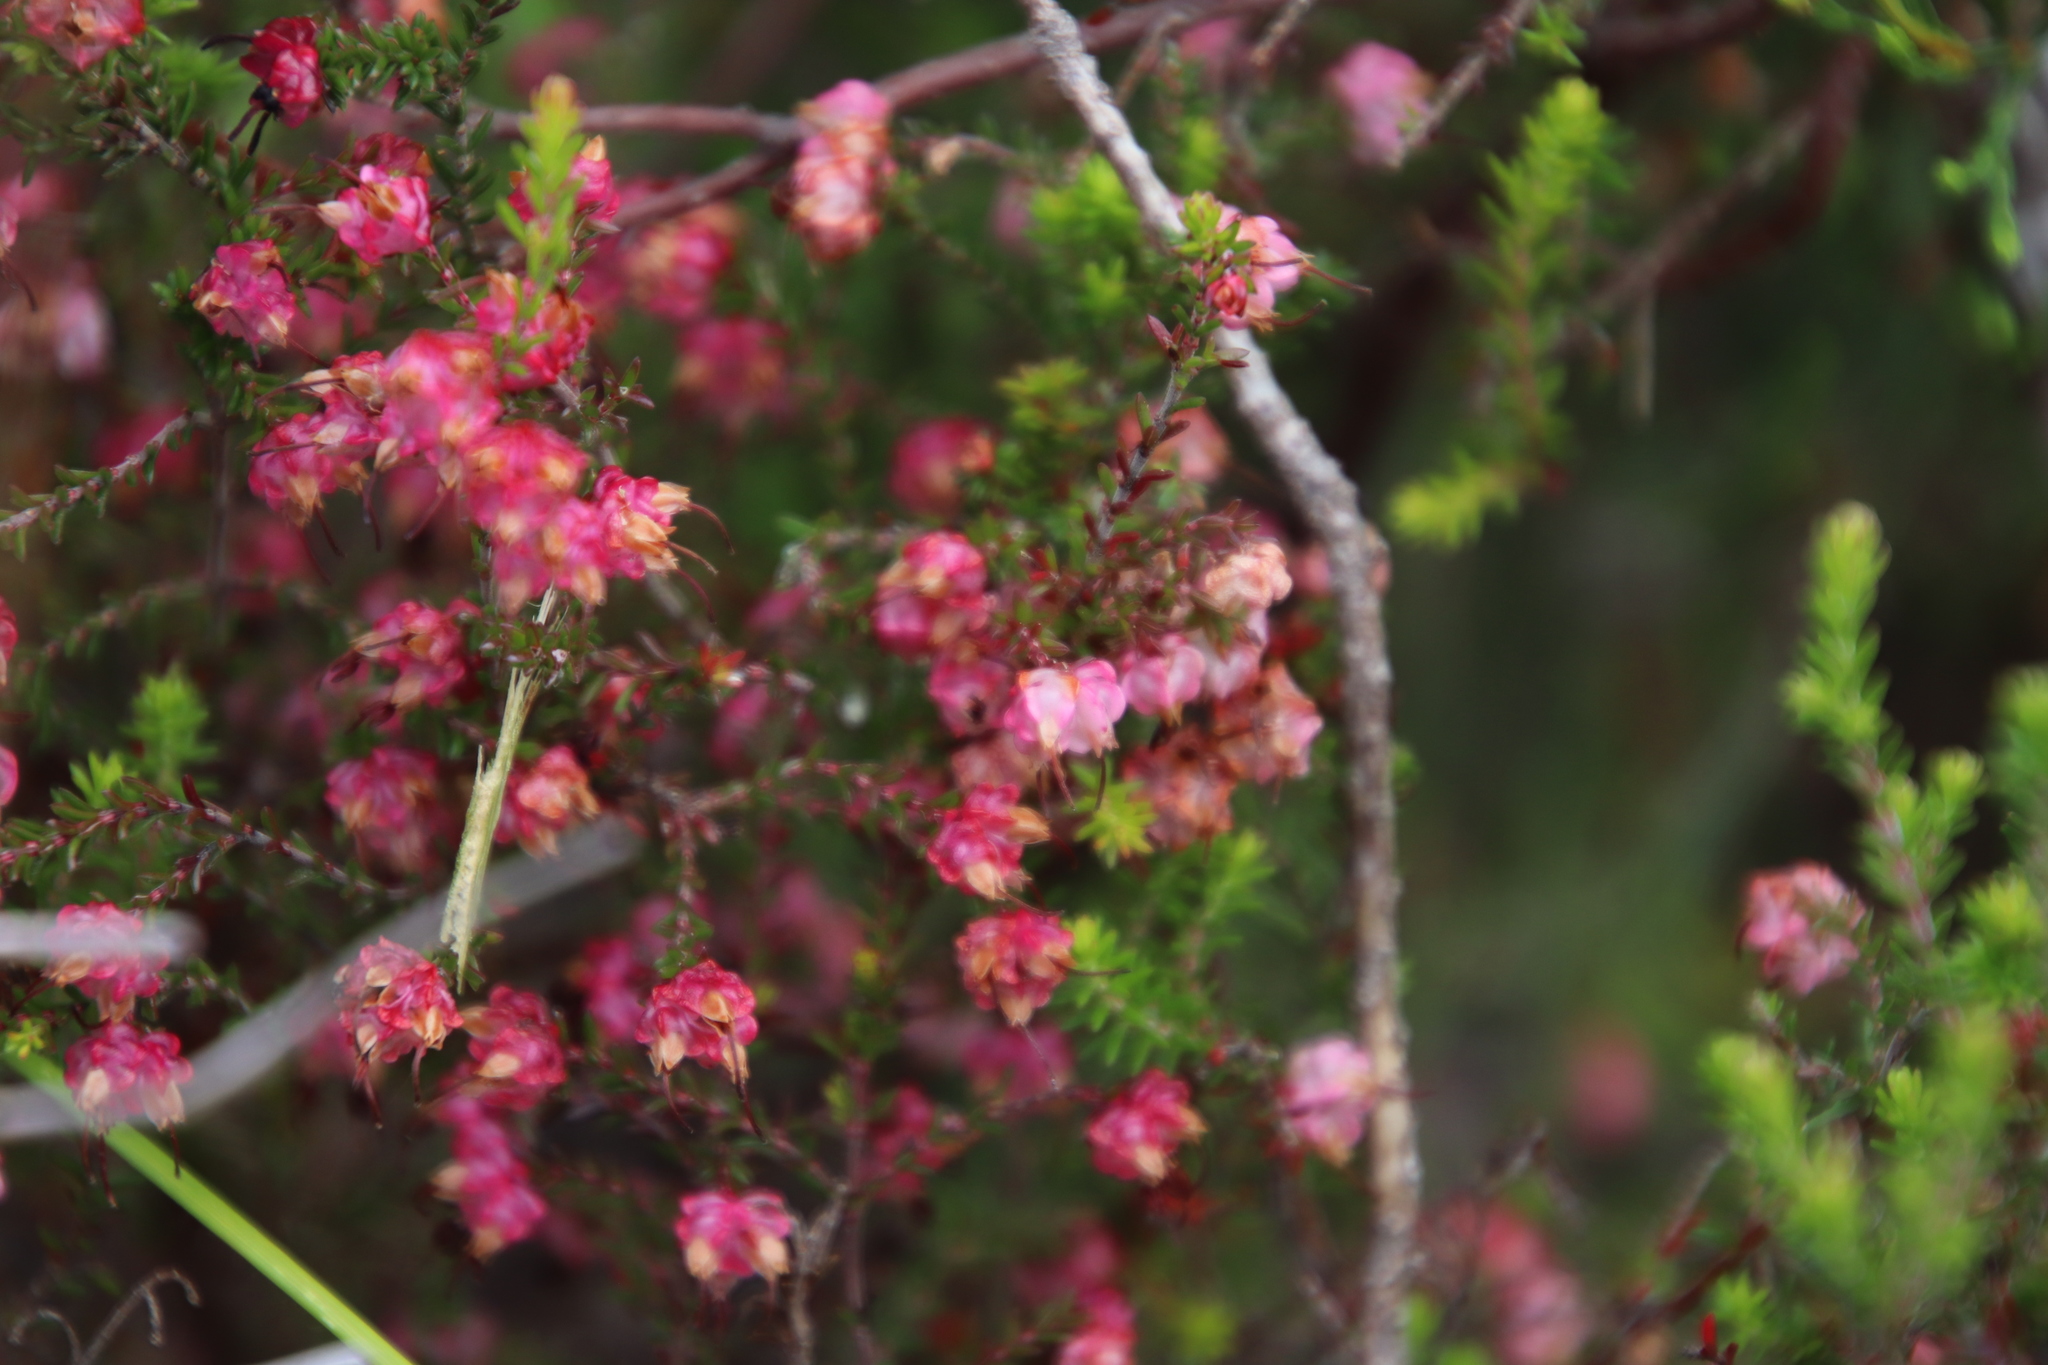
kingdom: Plantae
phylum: Tracheophyta
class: Magnoliopsida
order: Ericales
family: Ericaceae
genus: Erica
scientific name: Erica spumosa
